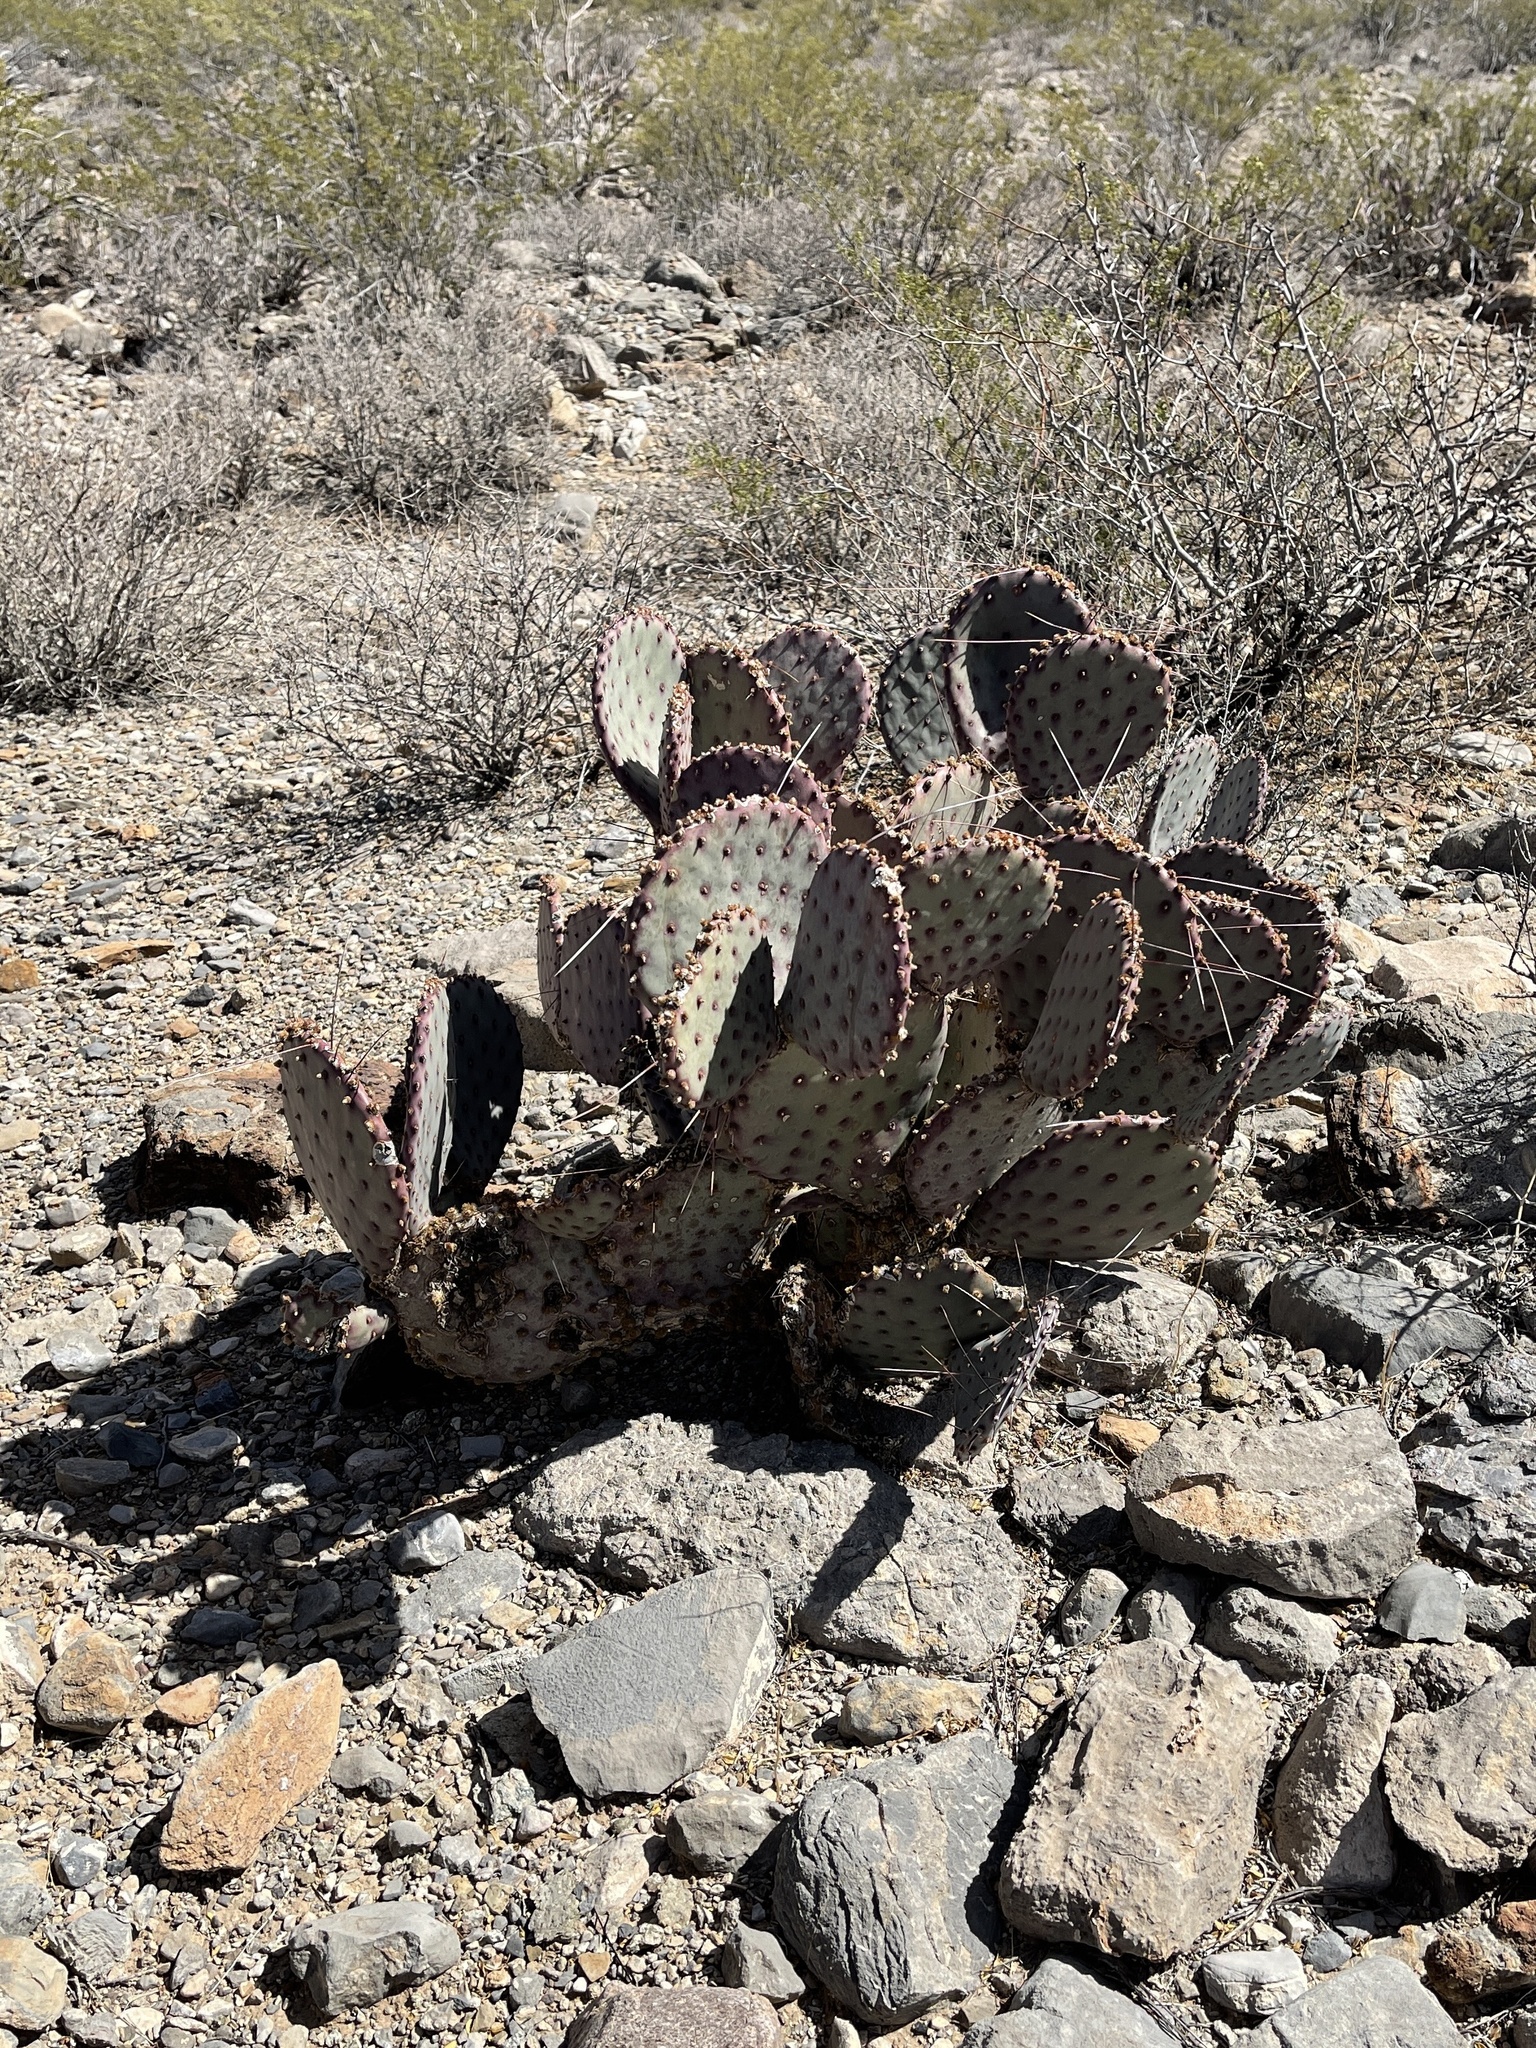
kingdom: Plantae
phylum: Tracheophyta
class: Magnoliopsida
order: Caryophyllales
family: Cactaceae
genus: Opuntia
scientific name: Opuntia macrocentra
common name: Purple prickly-pear
